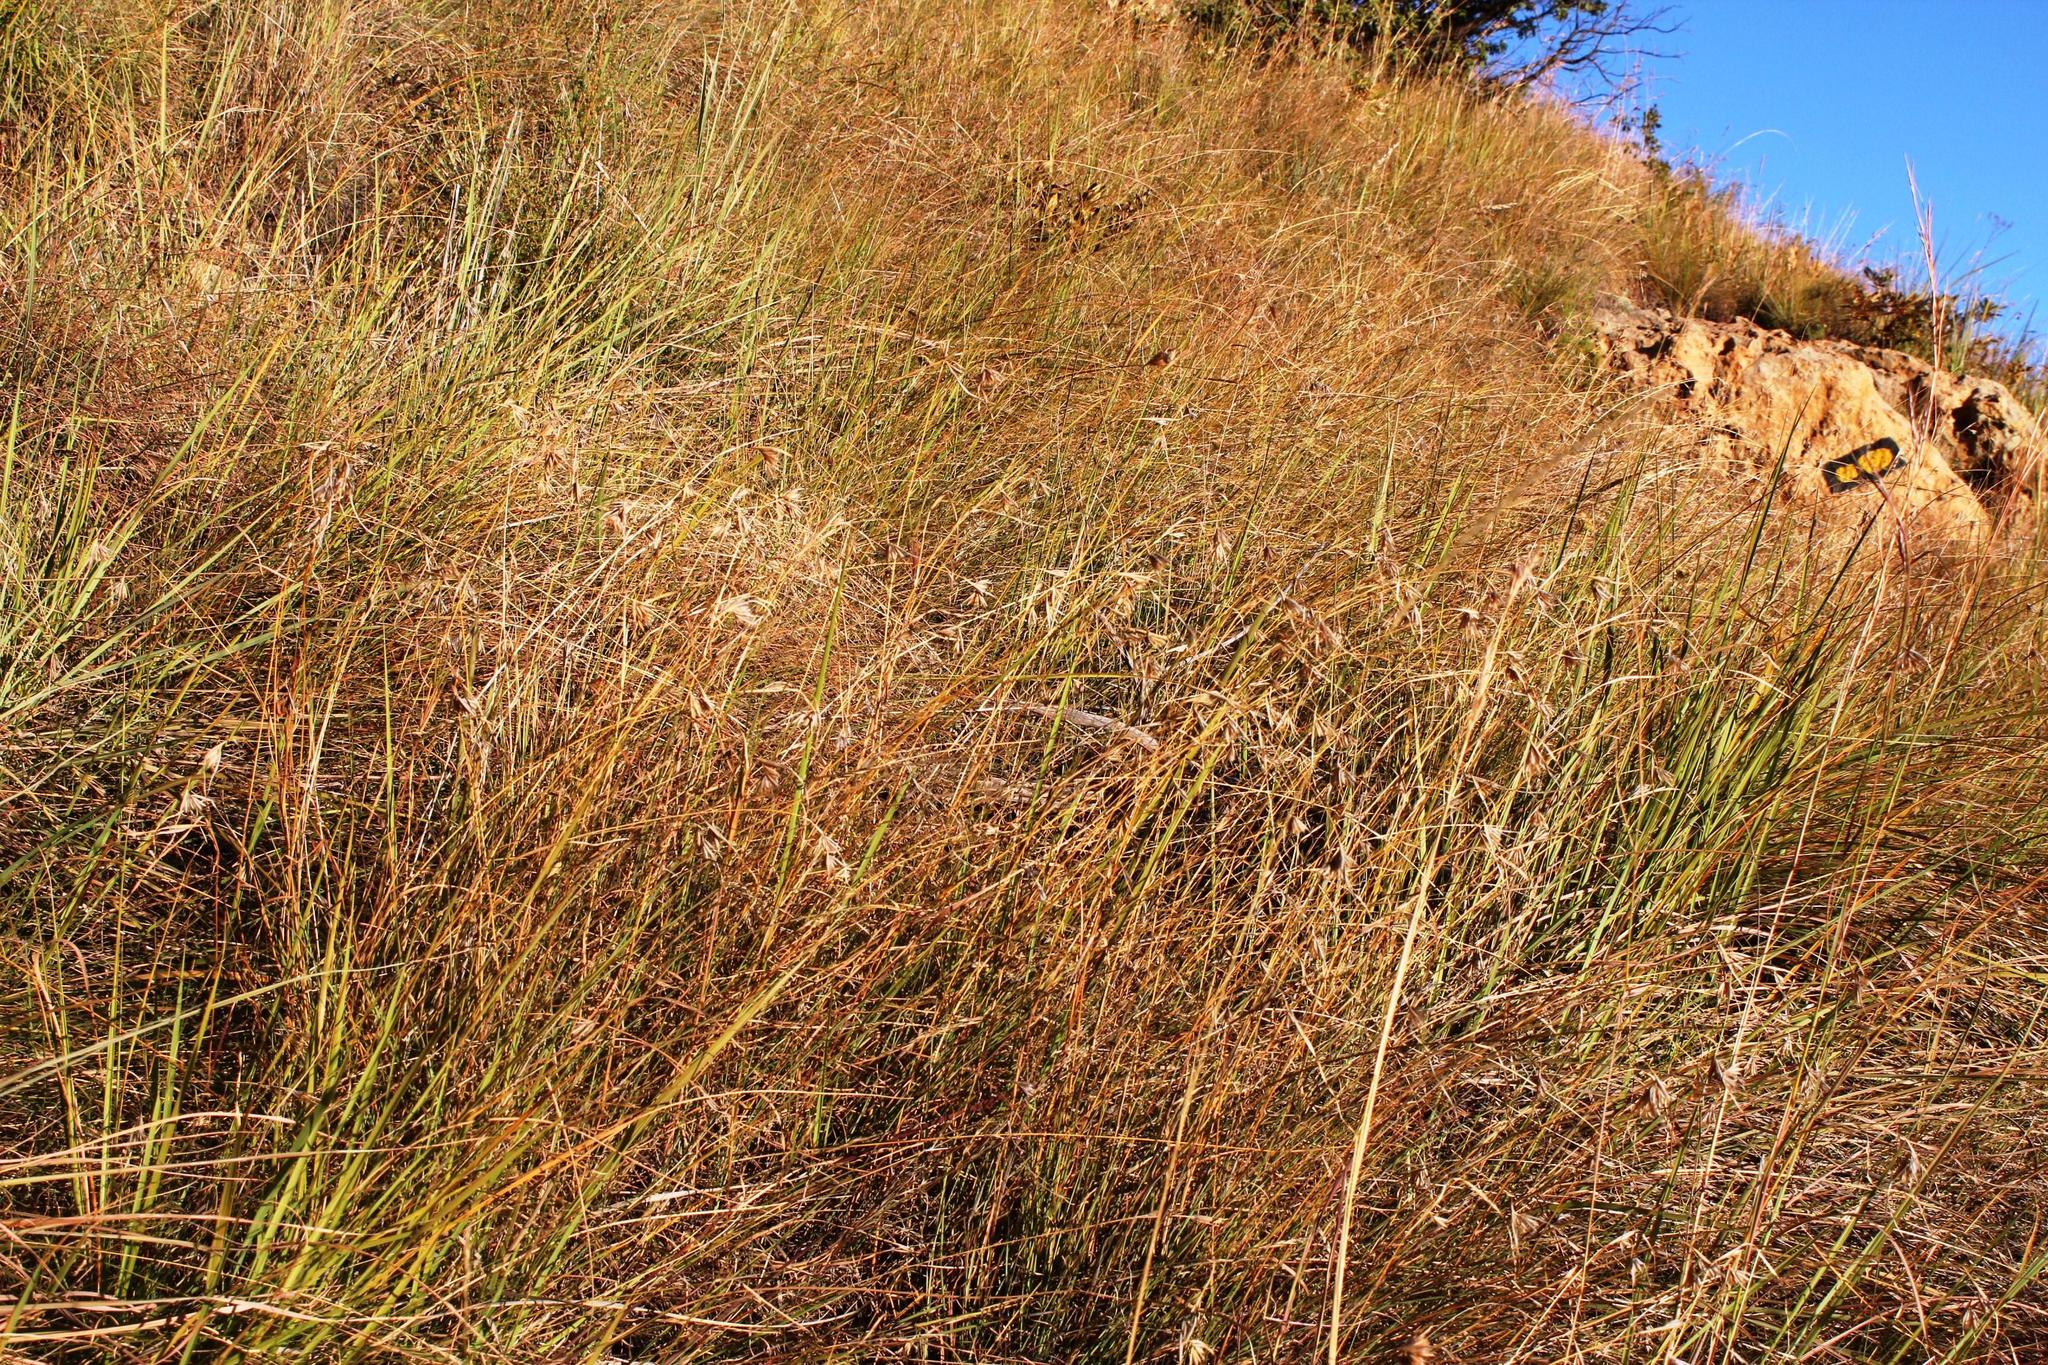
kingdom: Plantae
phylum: Tracheophyta
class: Liliopsida
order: Poales
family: Poaceae
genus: Themeda
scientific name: Themeda triandra
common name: Kangaroo grass
